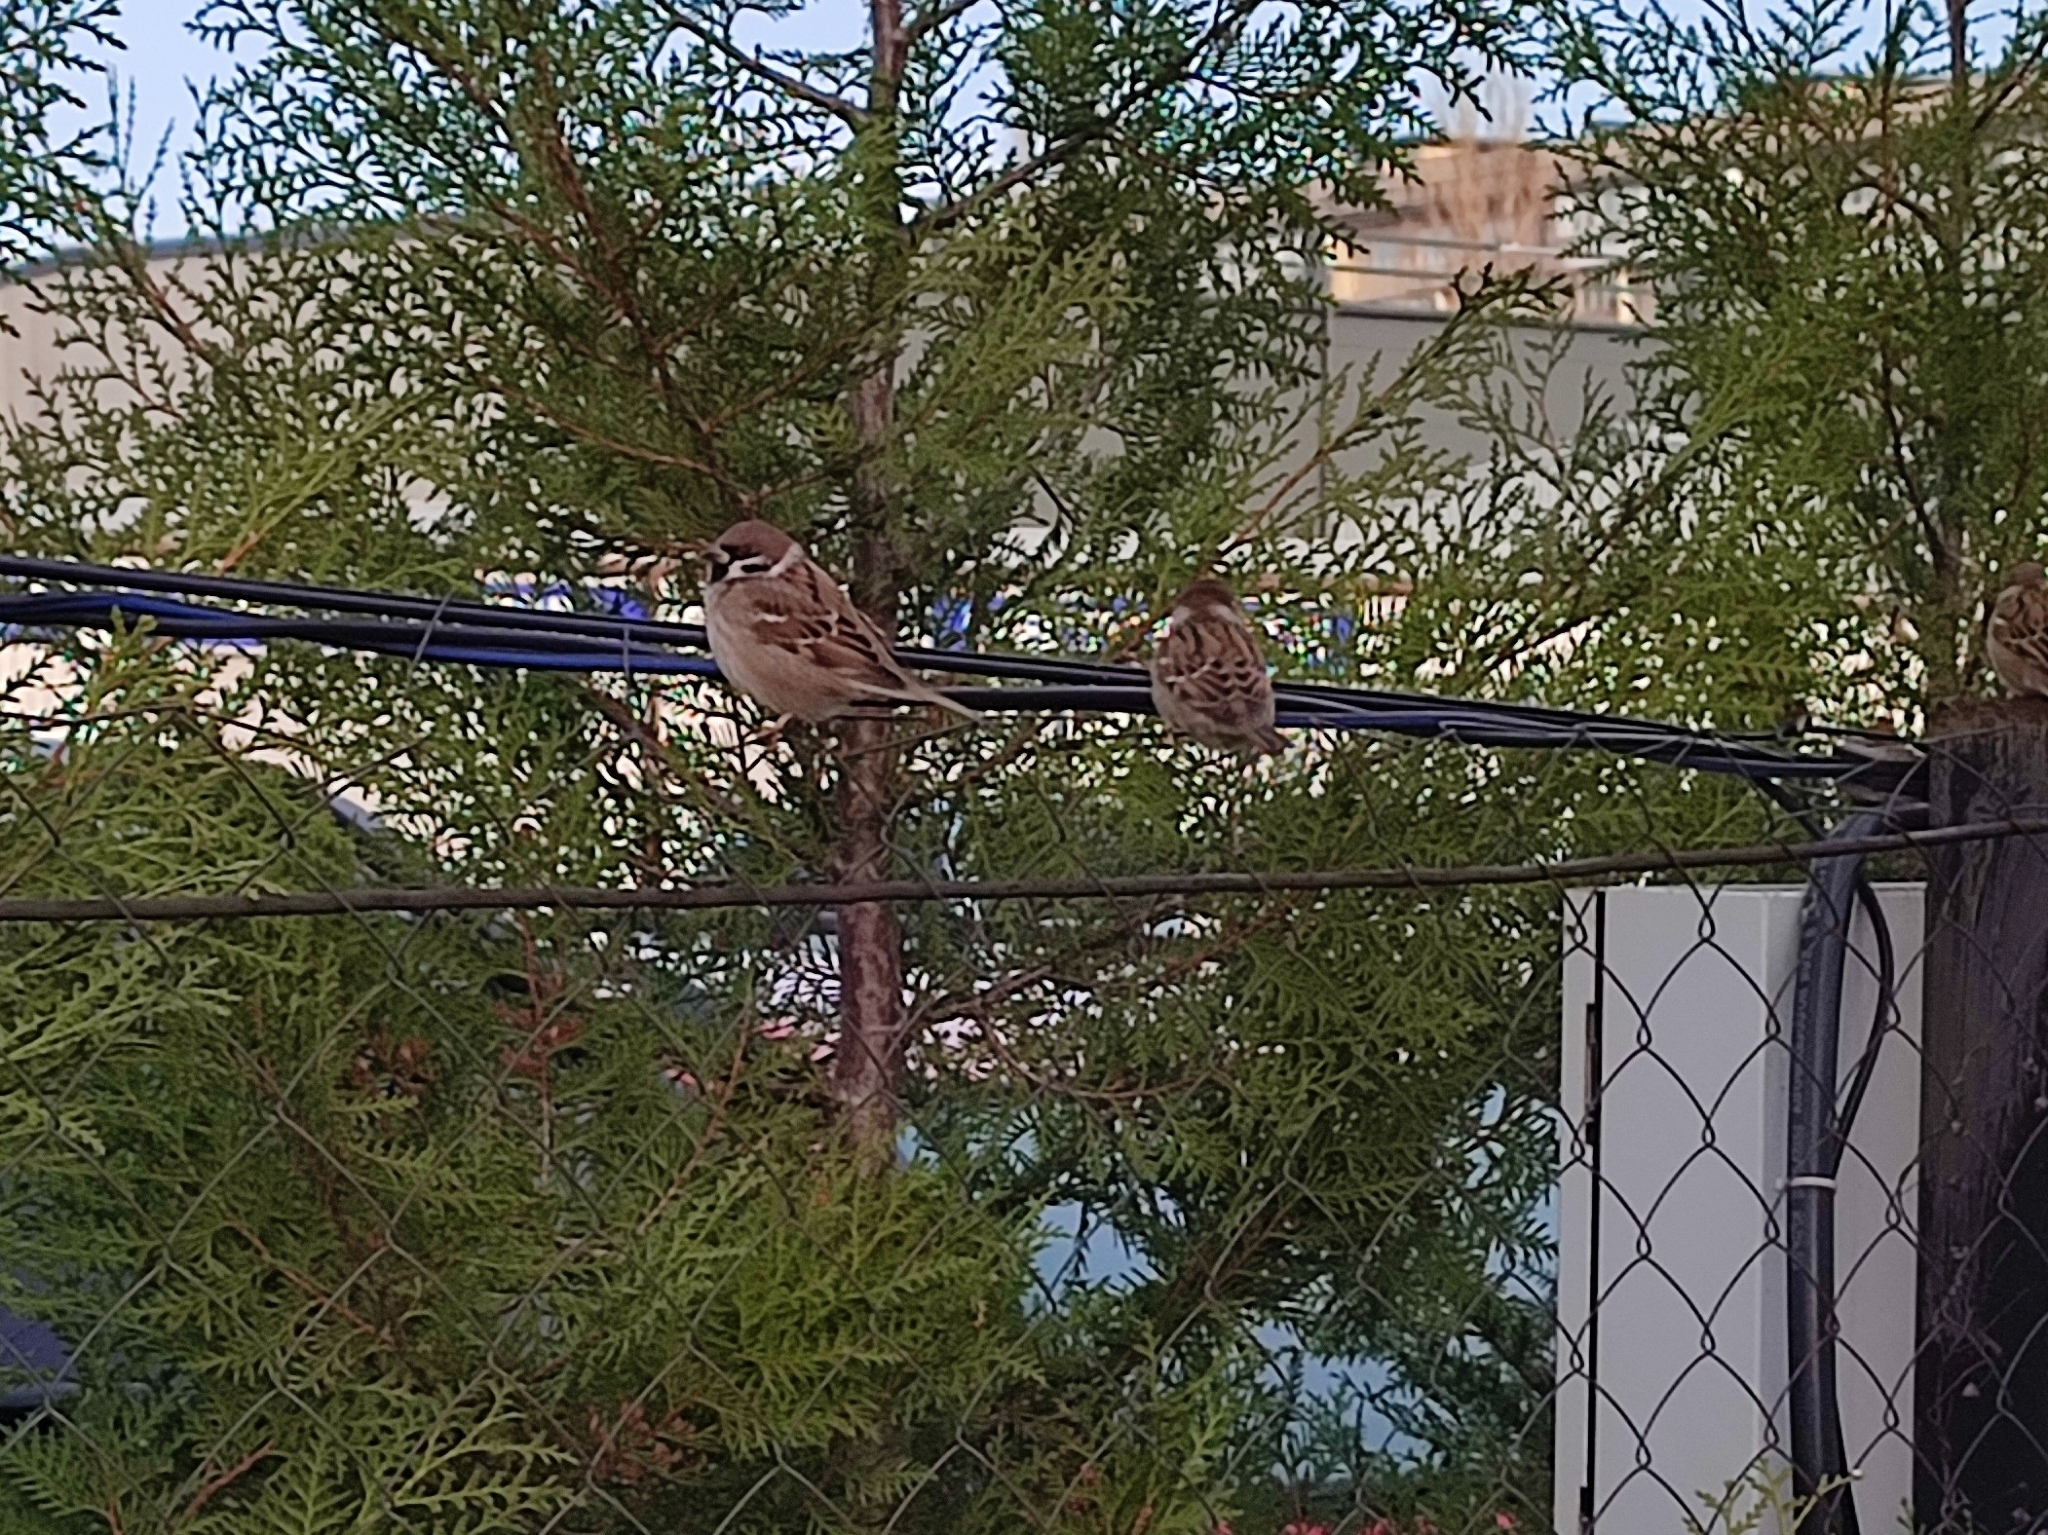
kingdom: Animalia
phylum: Chordata
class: Aves
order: Passeriformes
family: Passeridae
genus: Passer
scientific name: Passer montanus
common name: Eurasian tree sparrow
